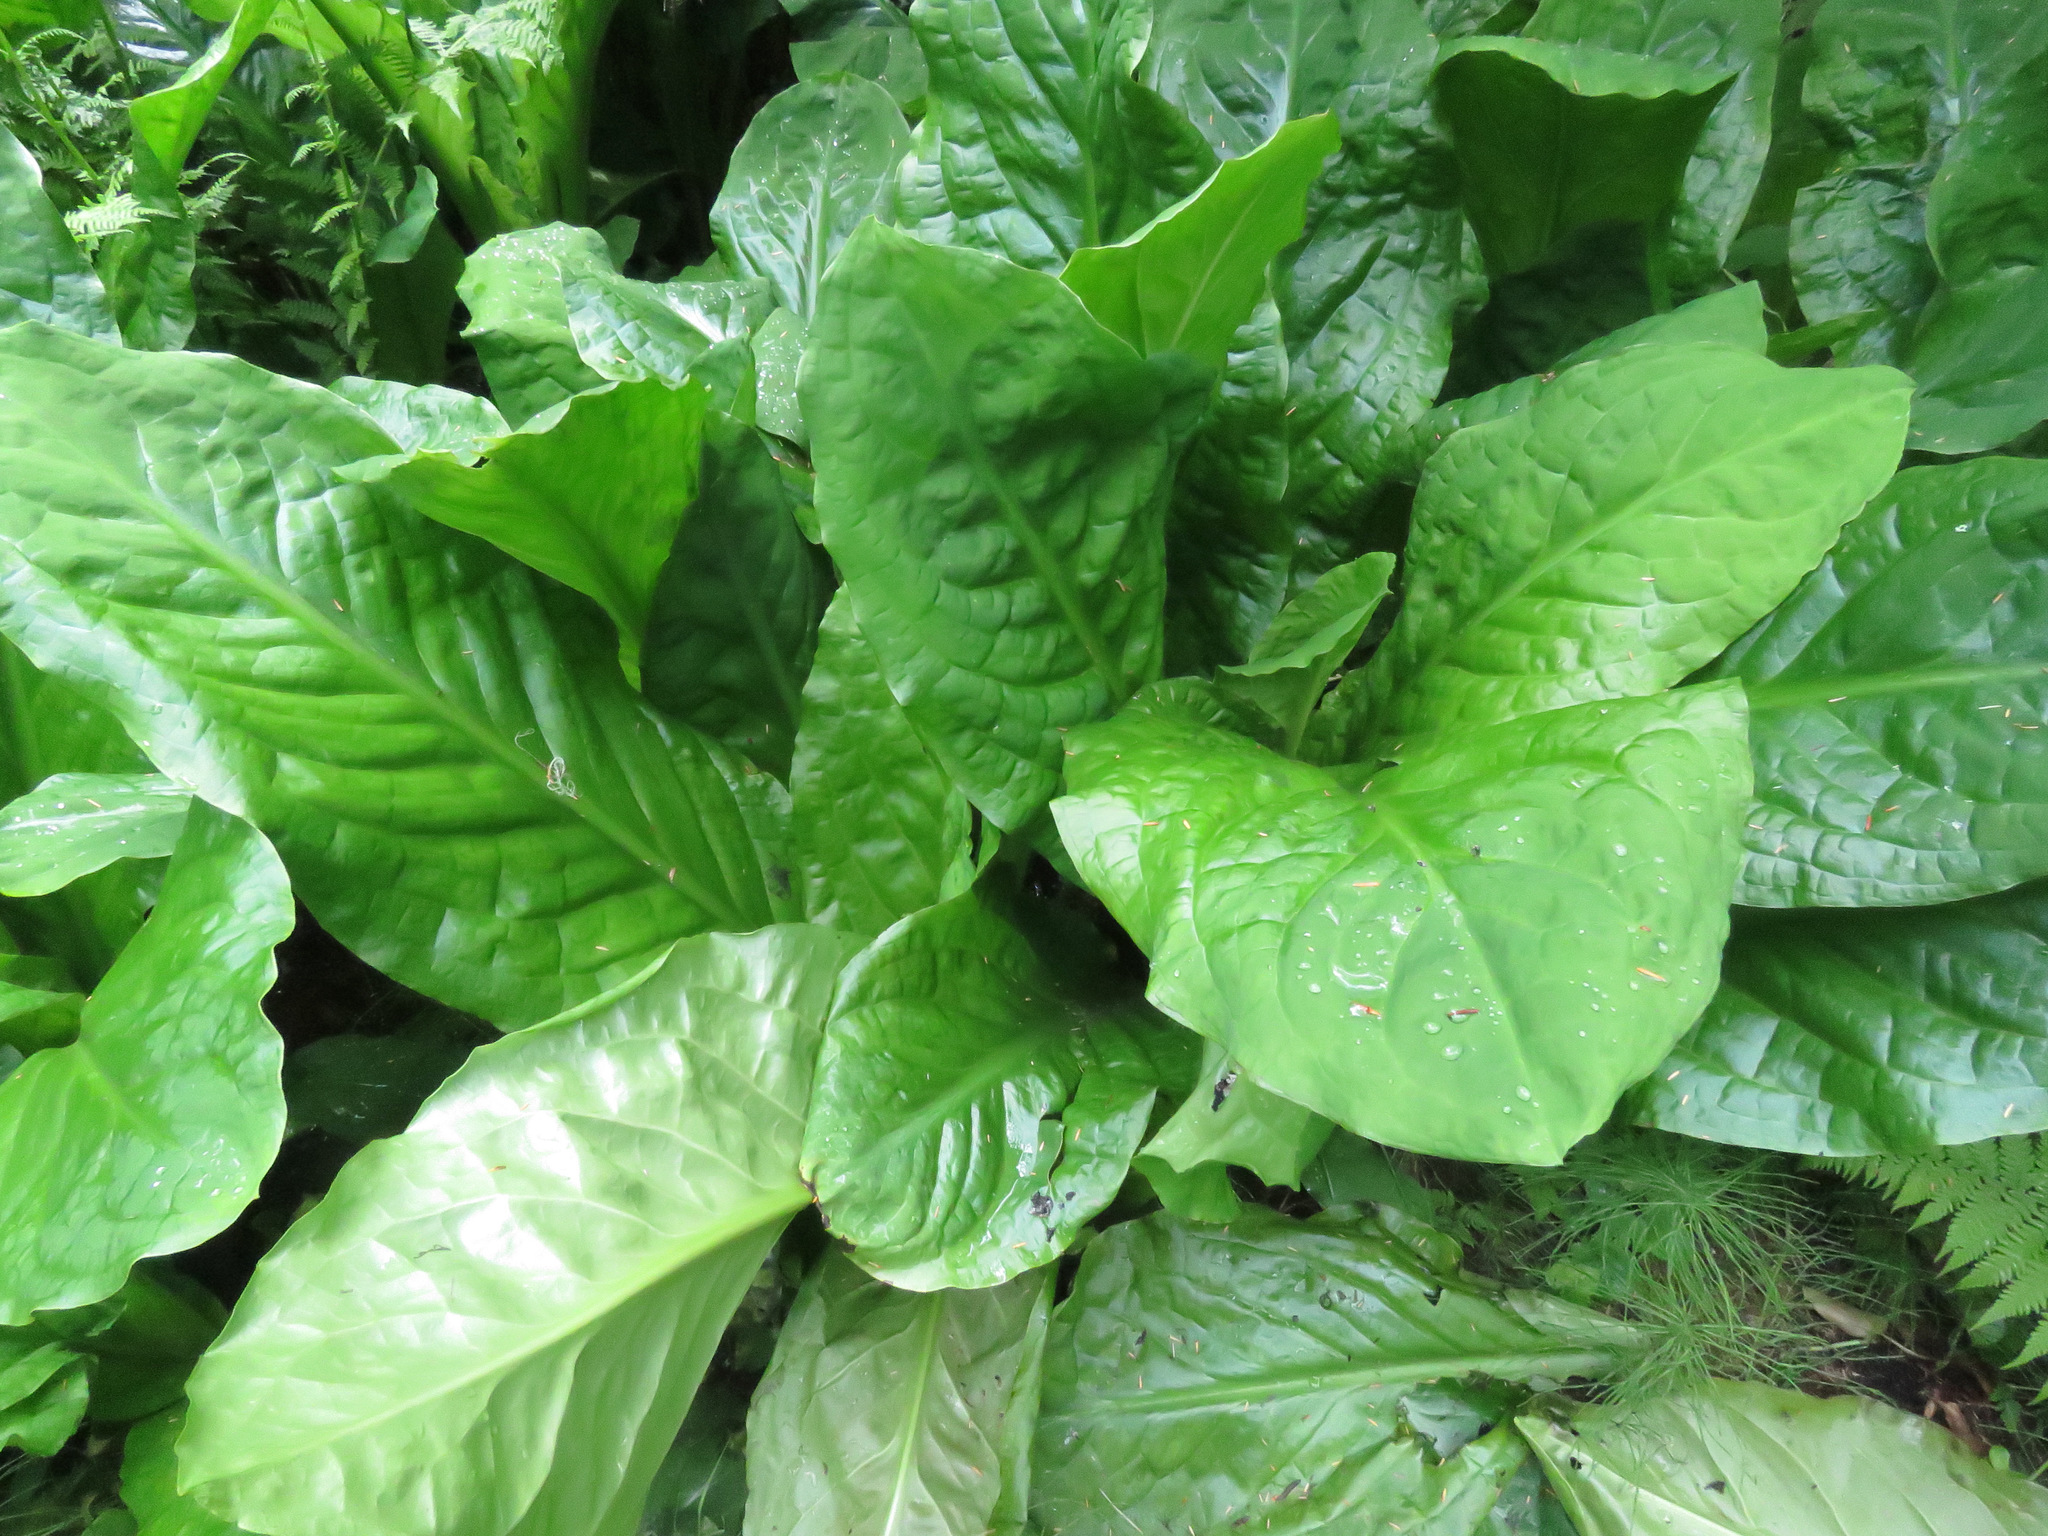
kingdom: Plantae
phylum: Tracheophyta
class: Liliopsida
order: Alismatales
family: Araceae
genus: Lysichiton
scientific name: Lysichiton americanus
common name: American skunk cabbage
